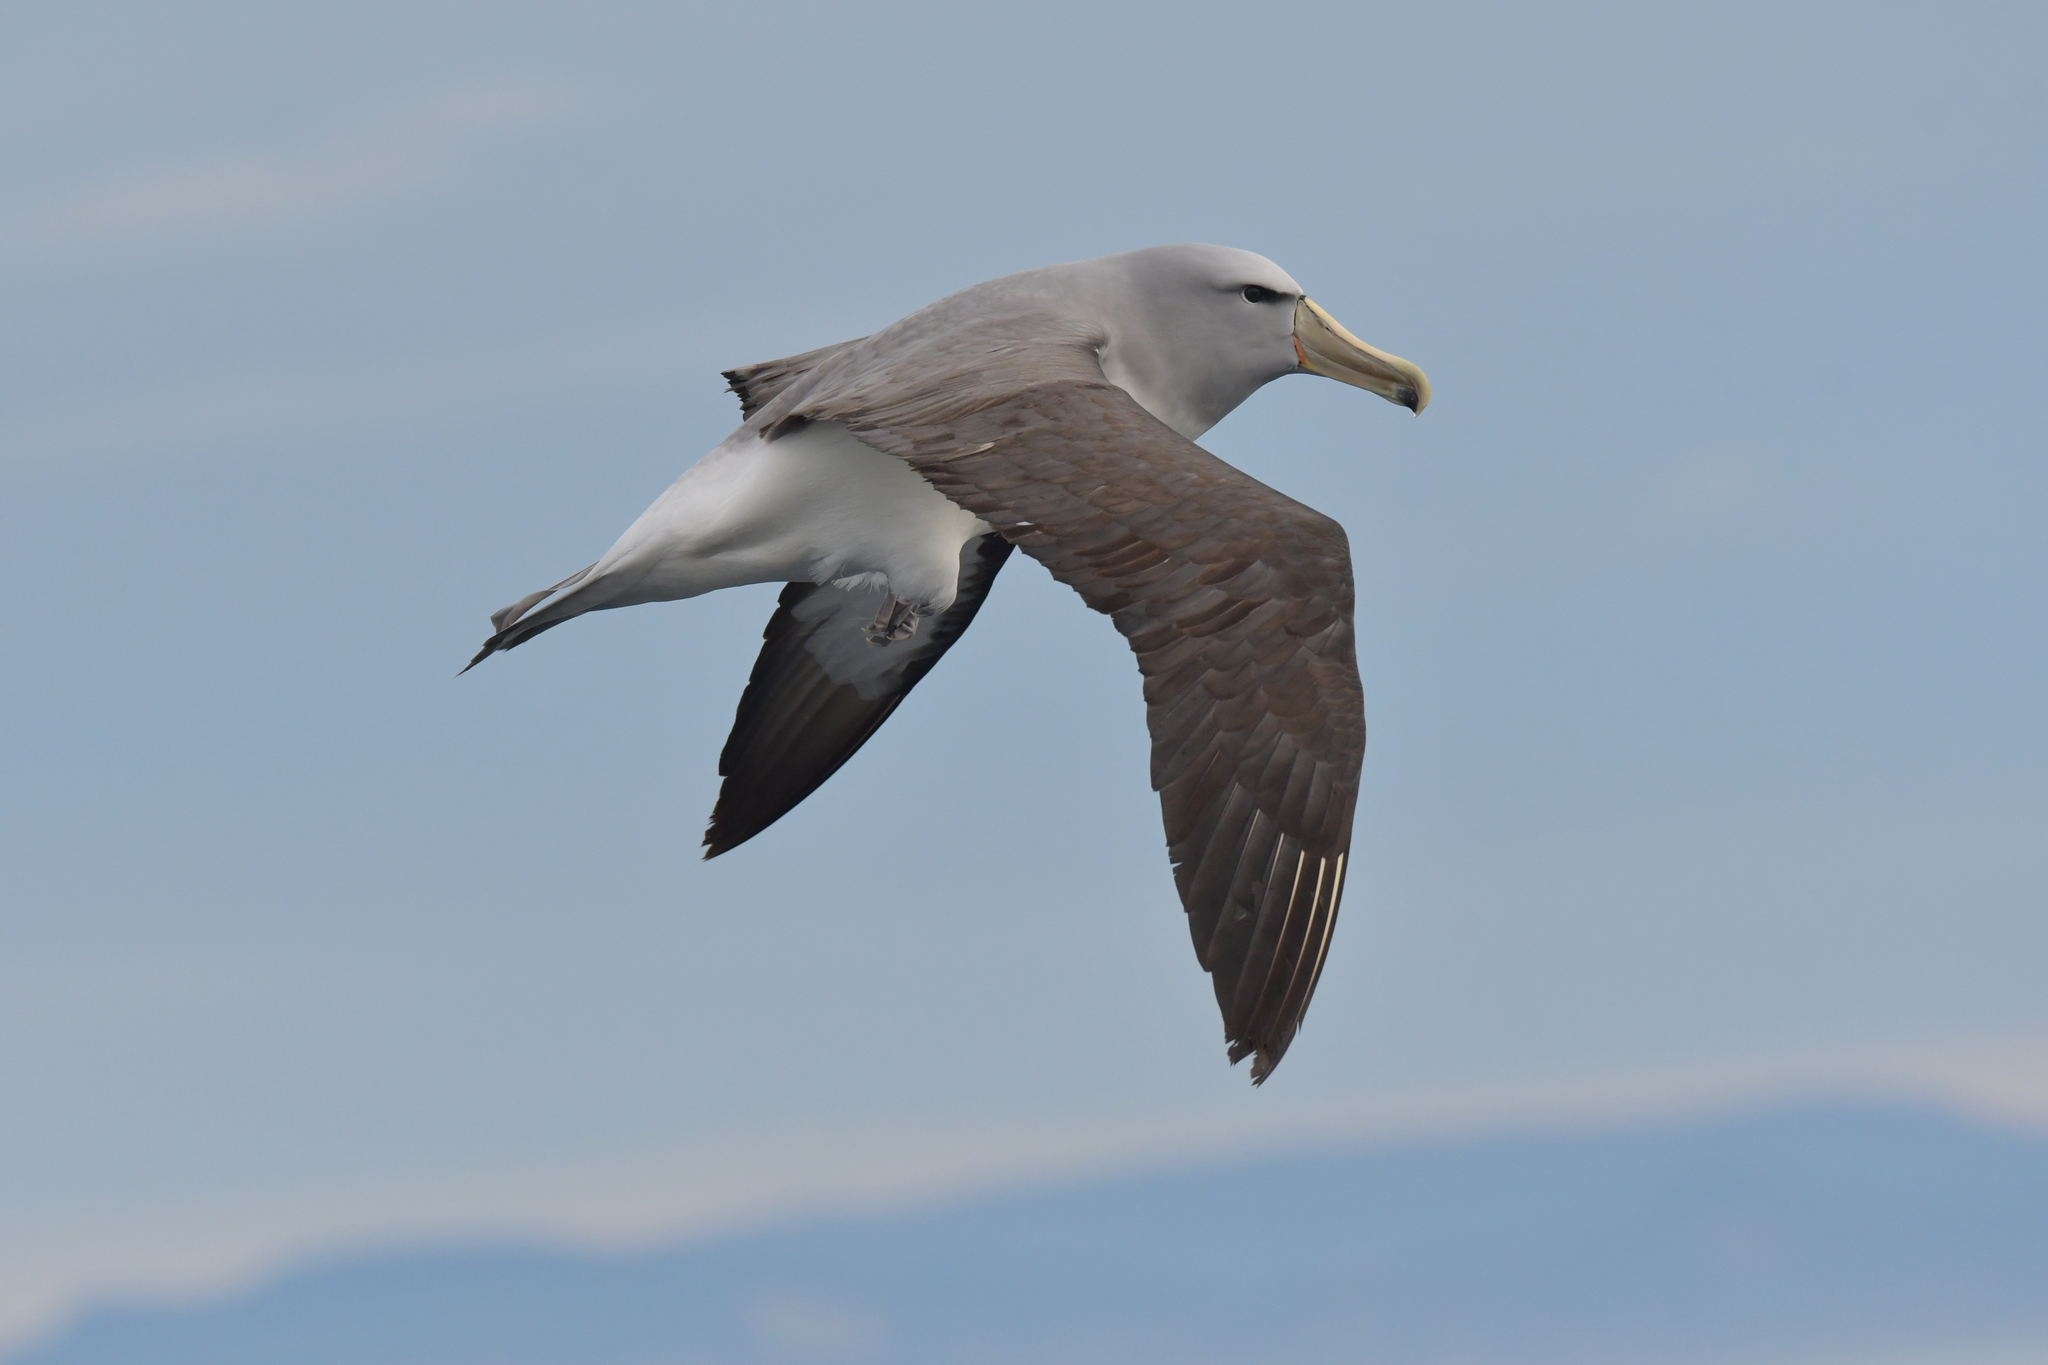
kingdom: Animalia
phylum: Chordata
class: Aves
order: Procellariiformes
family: Diomedeidae
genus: Thalassarche
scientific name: Thalassarche salvini
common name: Salvin's albatross
